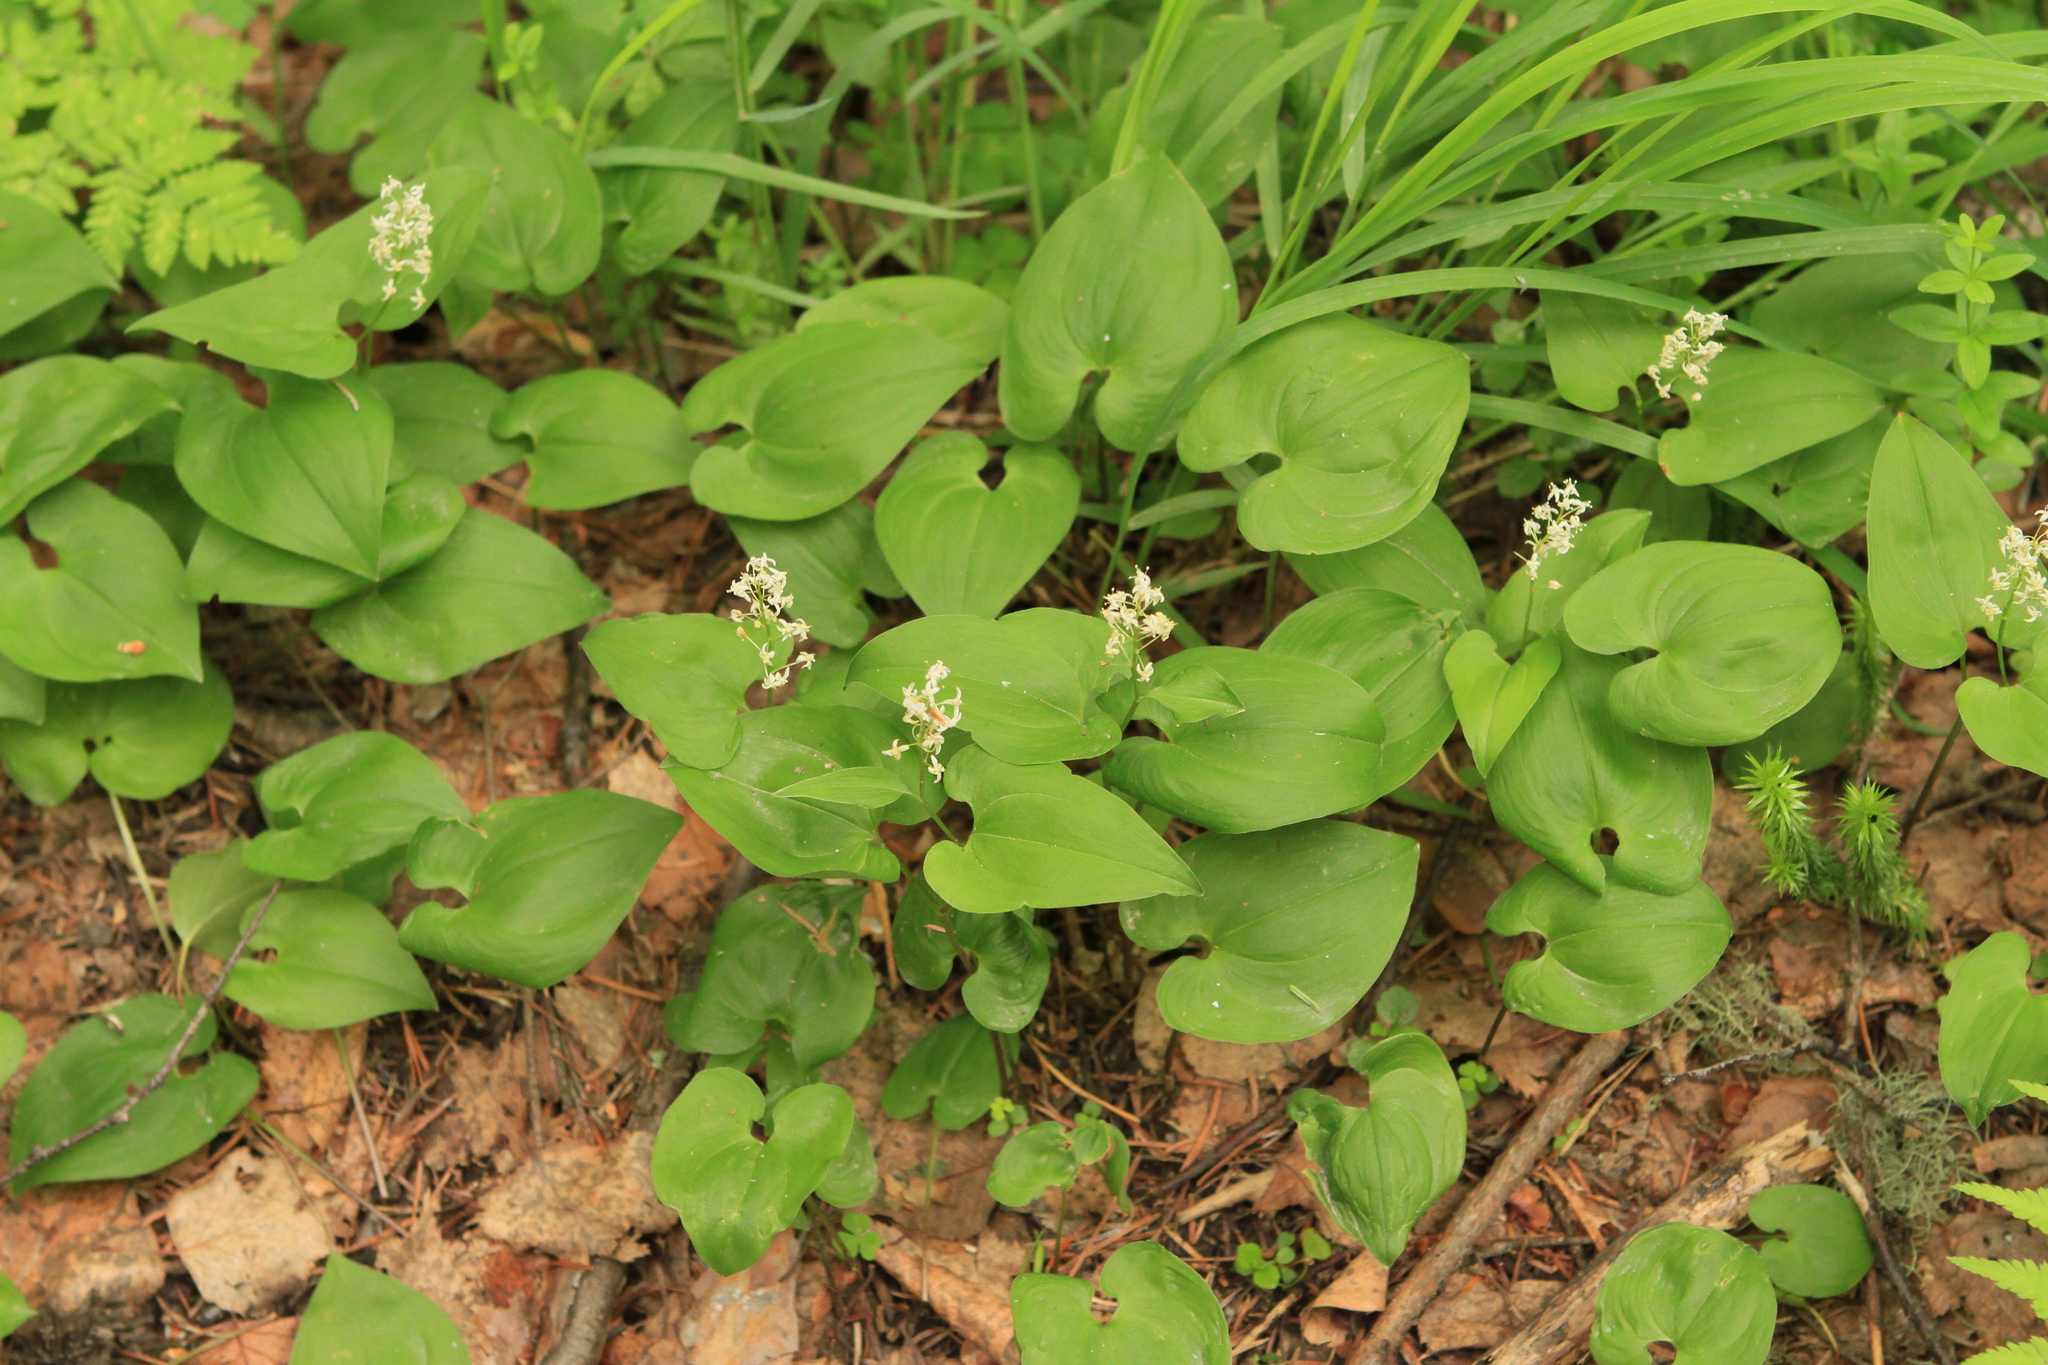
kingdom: Plantae
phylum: Tracheophyta
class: Liliopsida
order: Asparagales
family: Asparagaceae
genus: Maianthemum
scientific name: Maianthemum bifolium
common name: May lily
